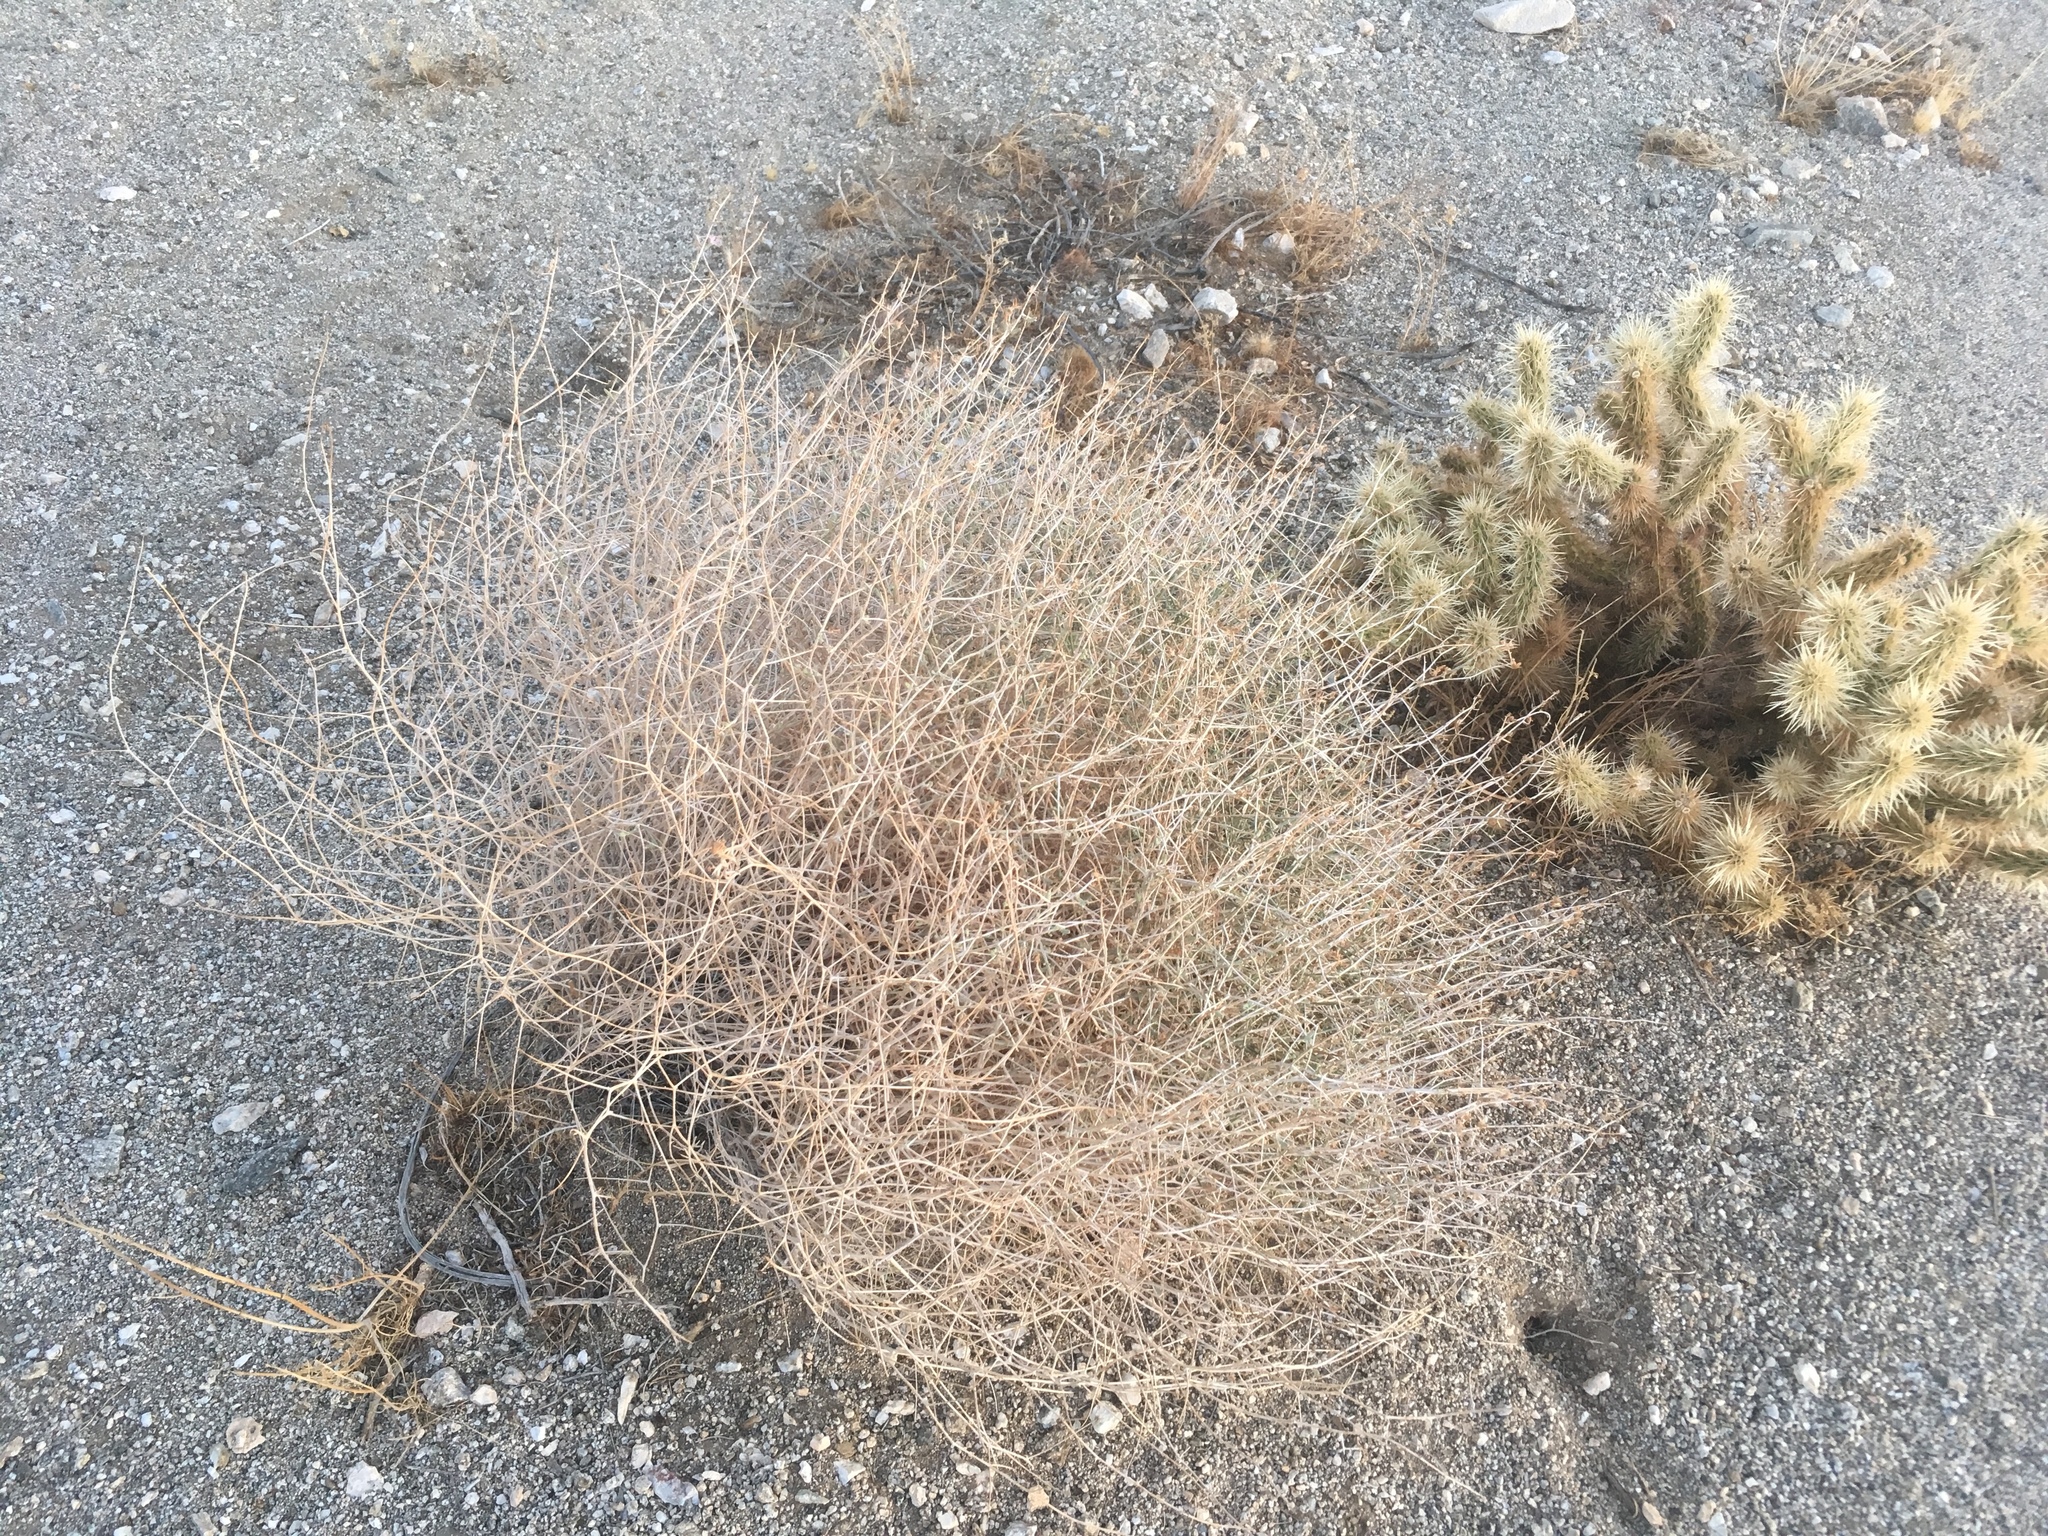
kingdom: Plantae
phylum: Tracheophyta
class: Magnoliopsida
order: Asterales
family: Asteraceae
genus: Stephanomeria
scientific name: Stephanomeria pauciflora
